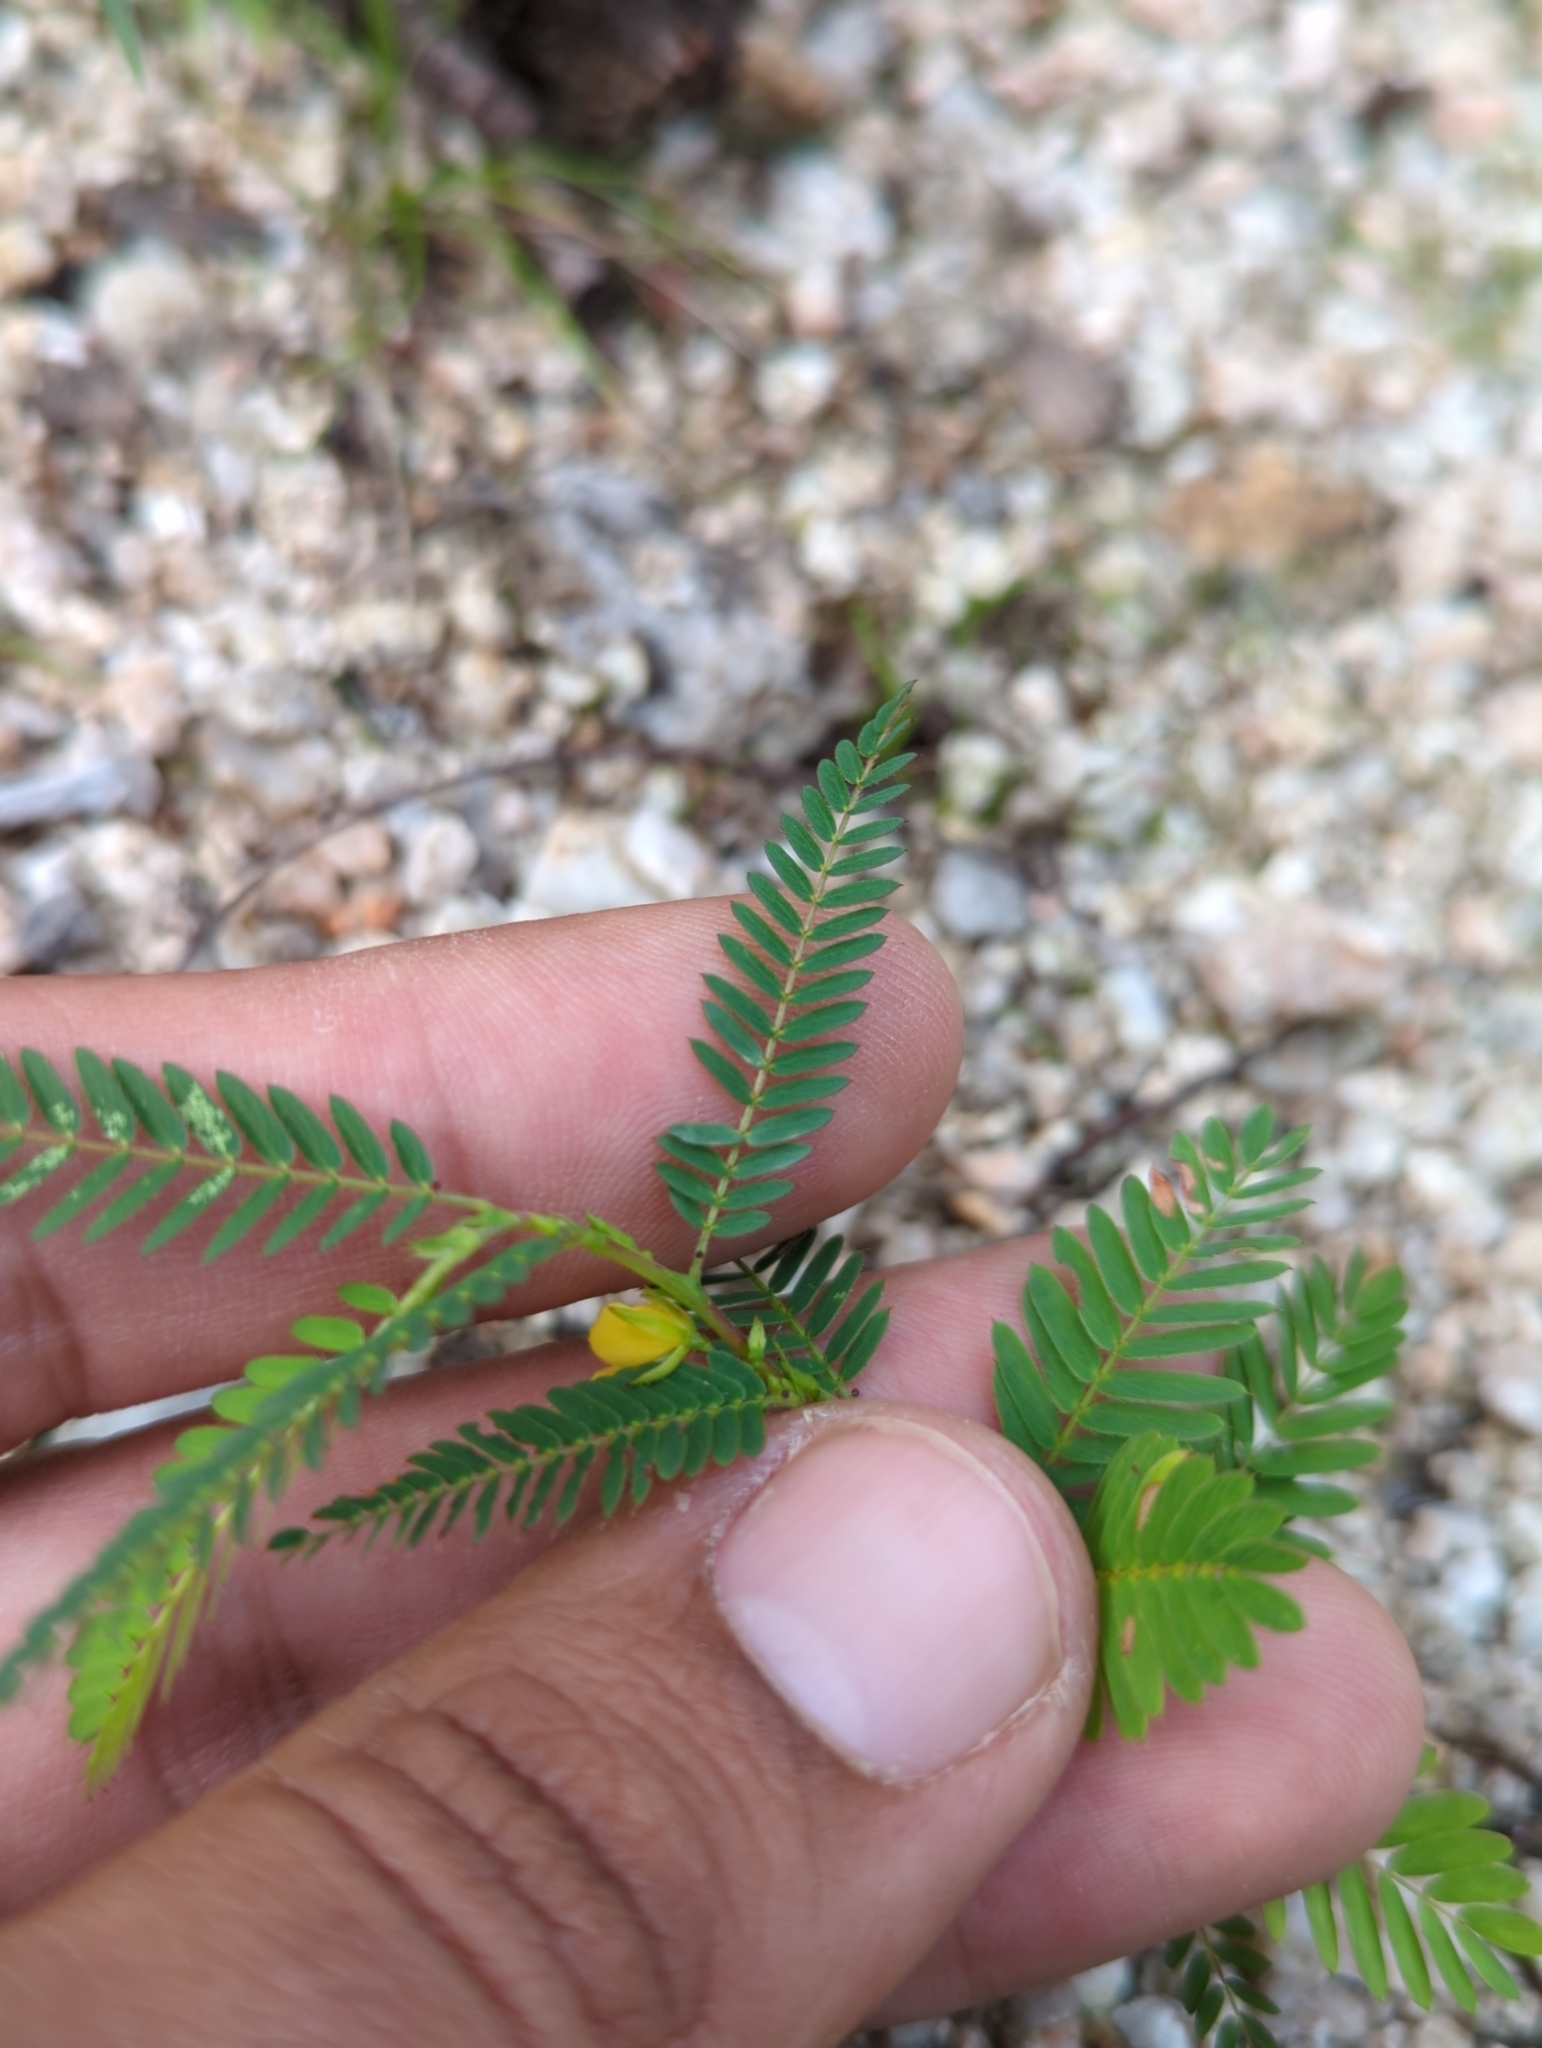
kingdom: Plantae
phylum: Tracheophyta
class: Magnoliopsida
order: Fabales
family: Fabaceae
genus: Chamaecrista
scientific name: Chamaecrista nictitans
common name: Sensitive cassia
